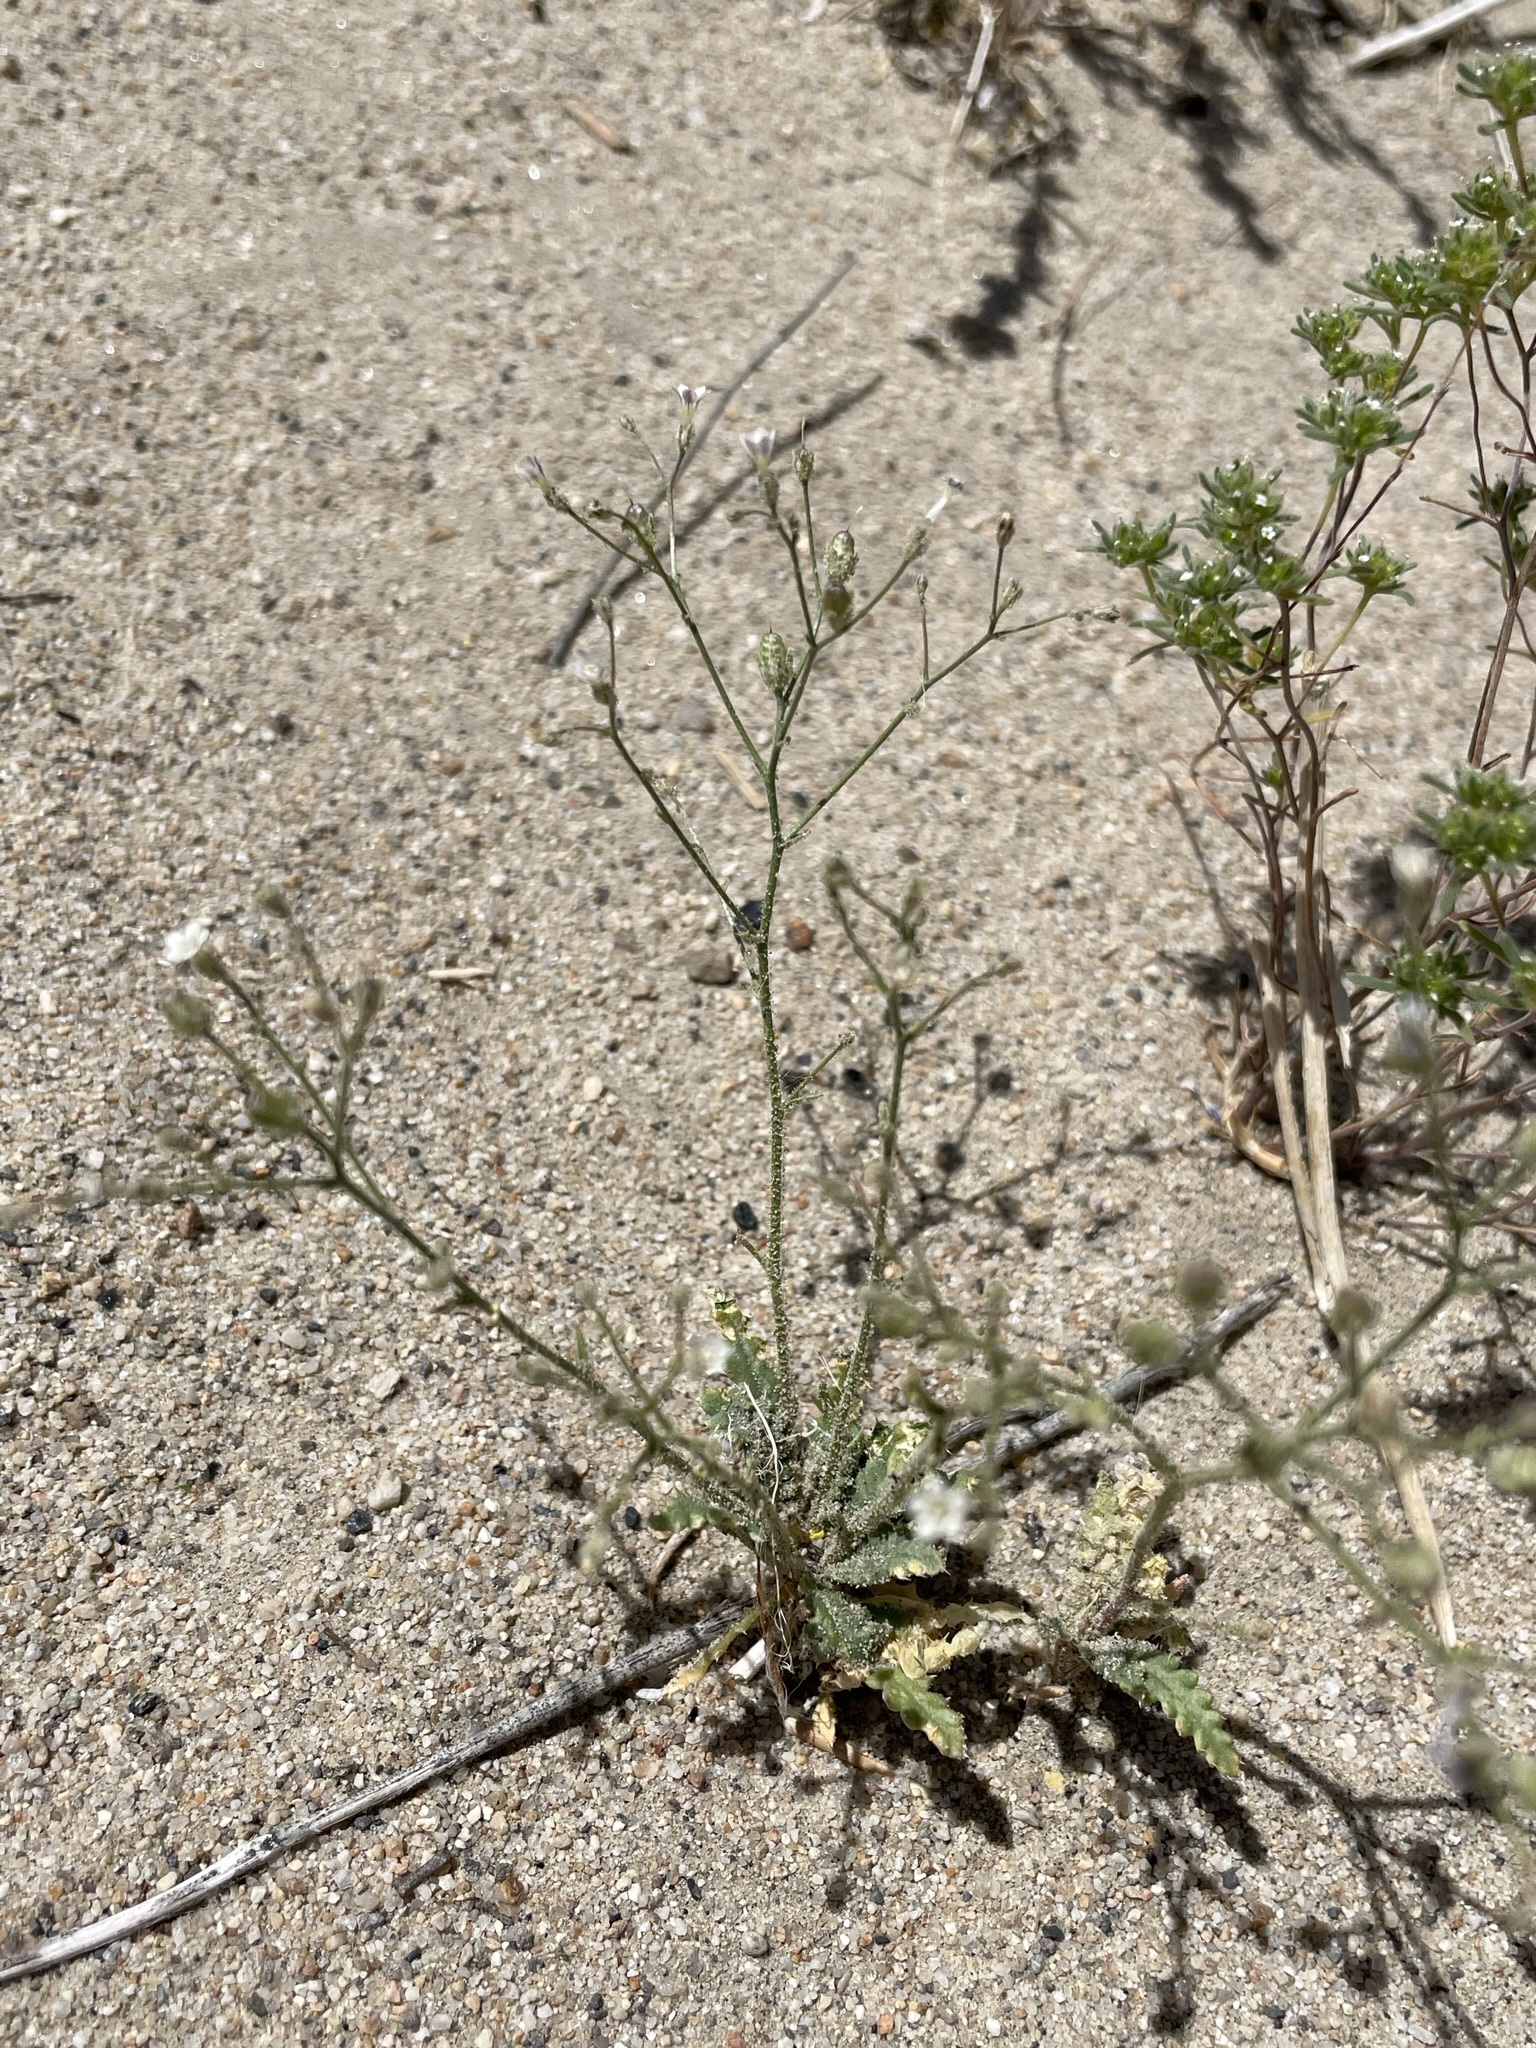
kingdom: Plantae
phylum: Tracheophyta
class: Magnoliopsida
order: Ericales
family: Polemoniaceae
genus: Aliciella
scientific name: Aliciella lottiae
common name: Lott's gilia
